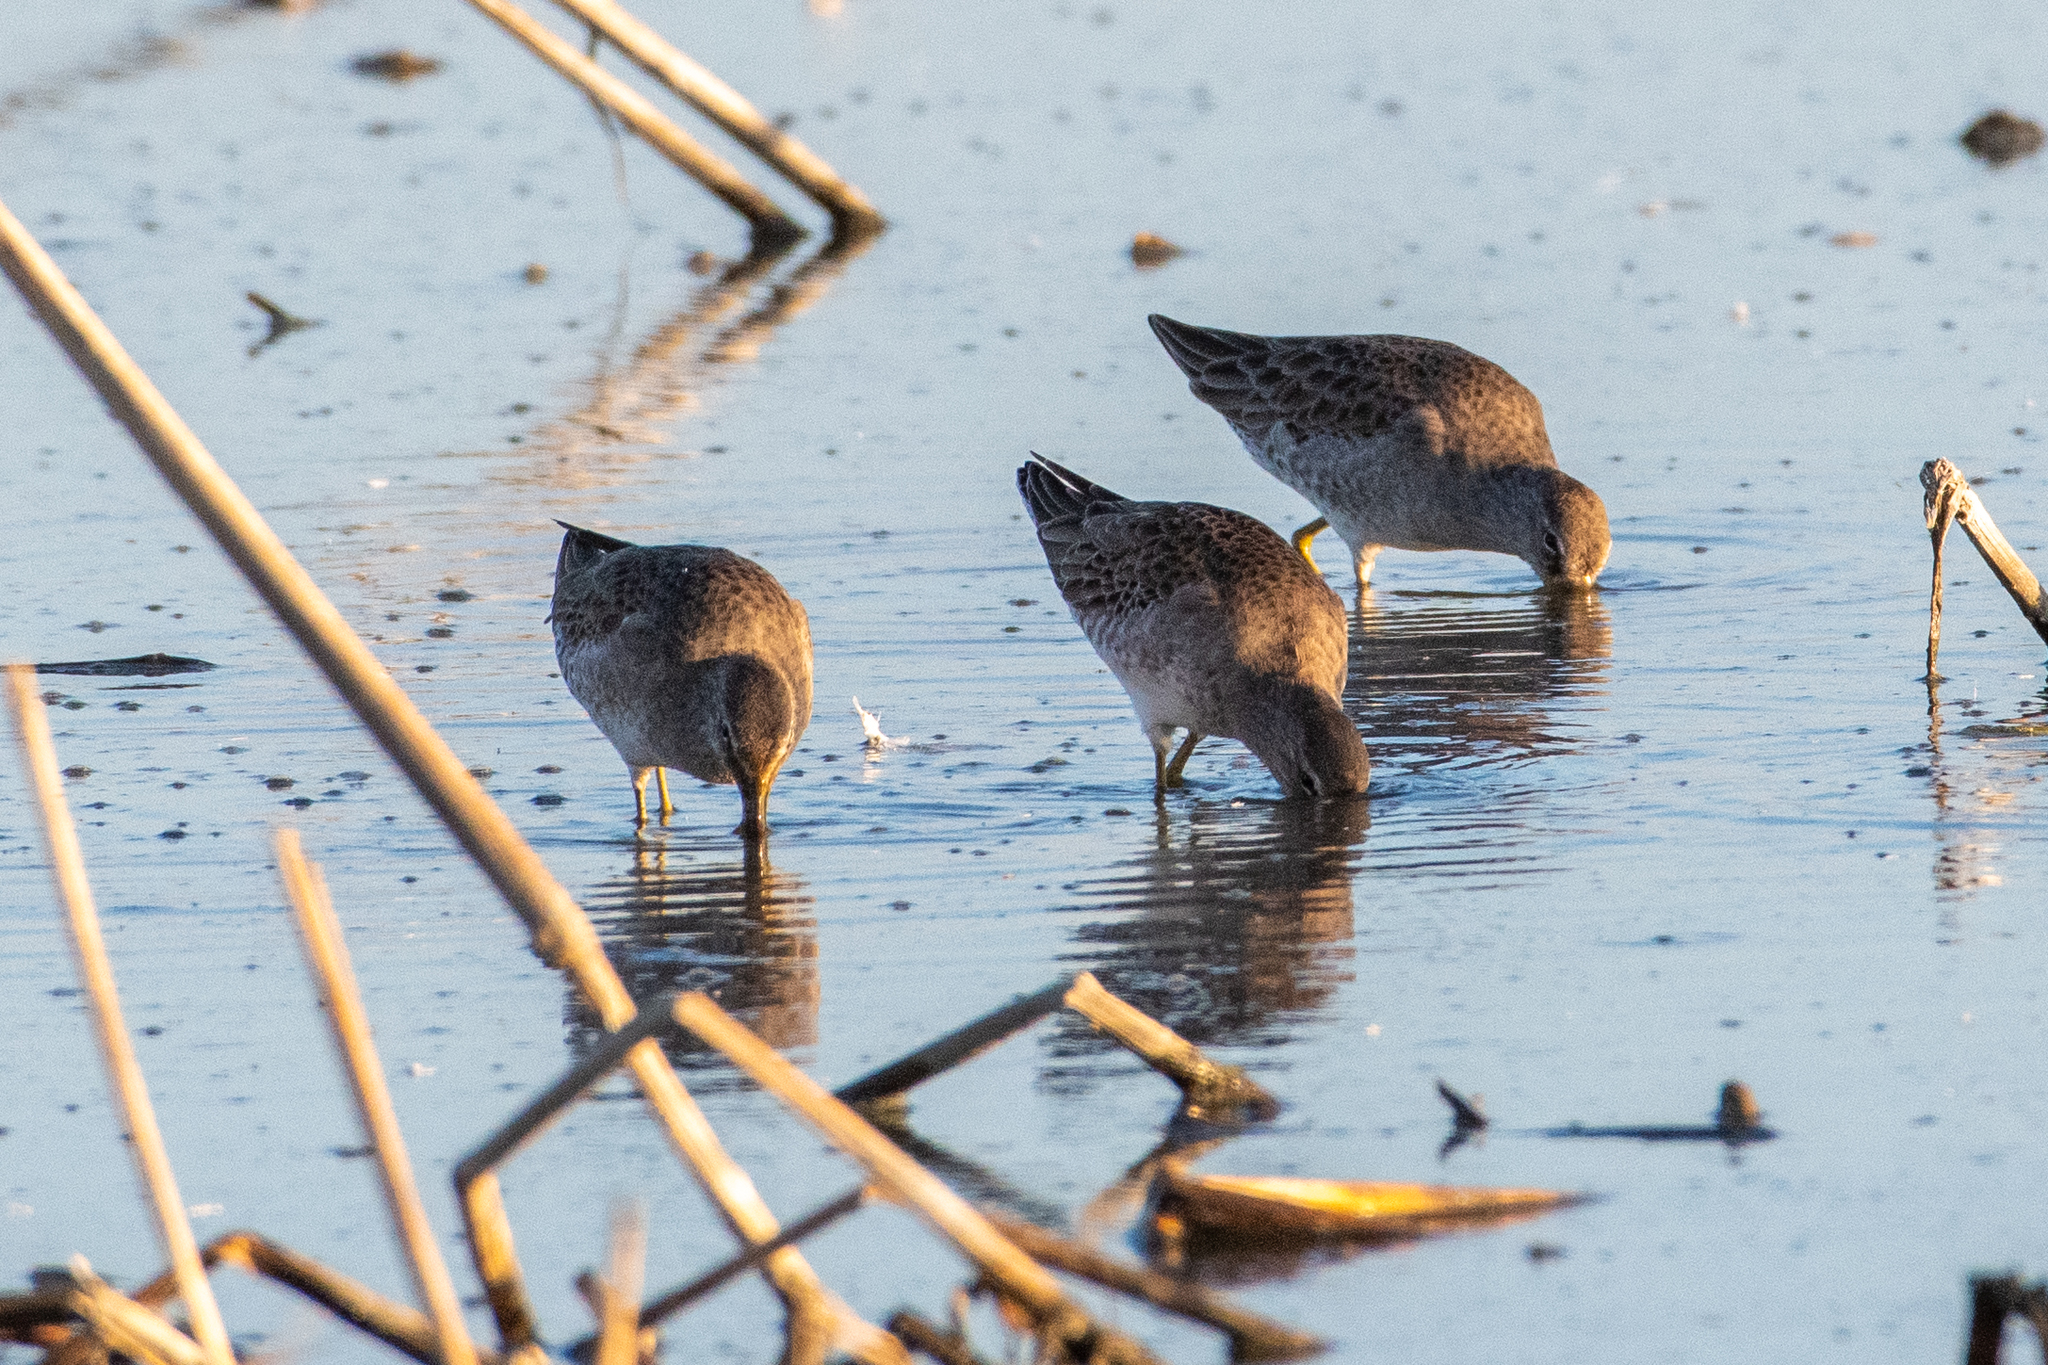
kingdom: Animalia
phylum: Chordata
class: Aves
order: Charadriiformes
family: Scolopacidae
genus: Limnodromus
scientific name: Limnodromus scolopaceus
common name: Long-billed dowitcher
